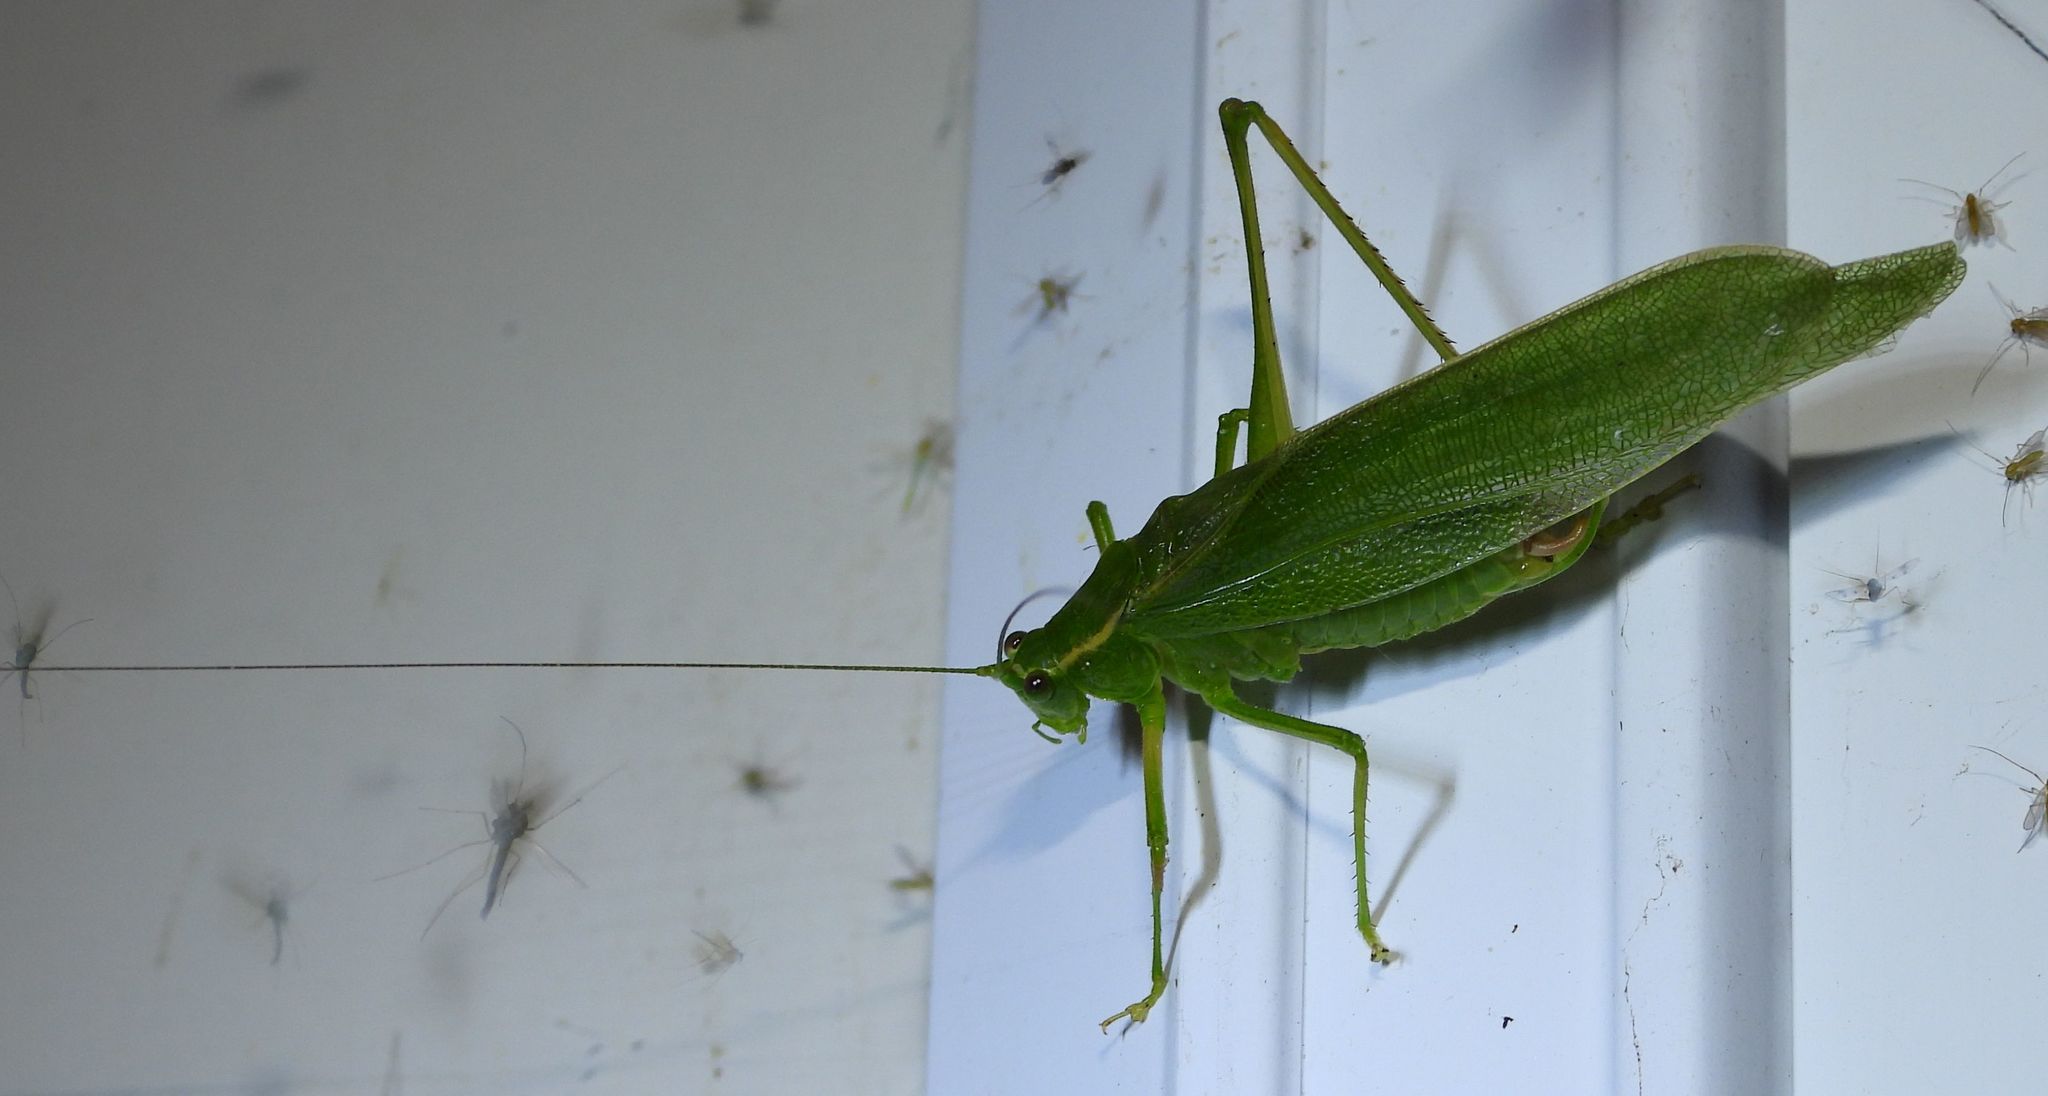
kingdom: Animalia
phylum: Arthropoda
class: Insecta
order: Orthoptera
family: Tettigoniidae
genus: Scudderia
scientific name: Scudderia septentrionalis
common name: Northern bush-katydid
